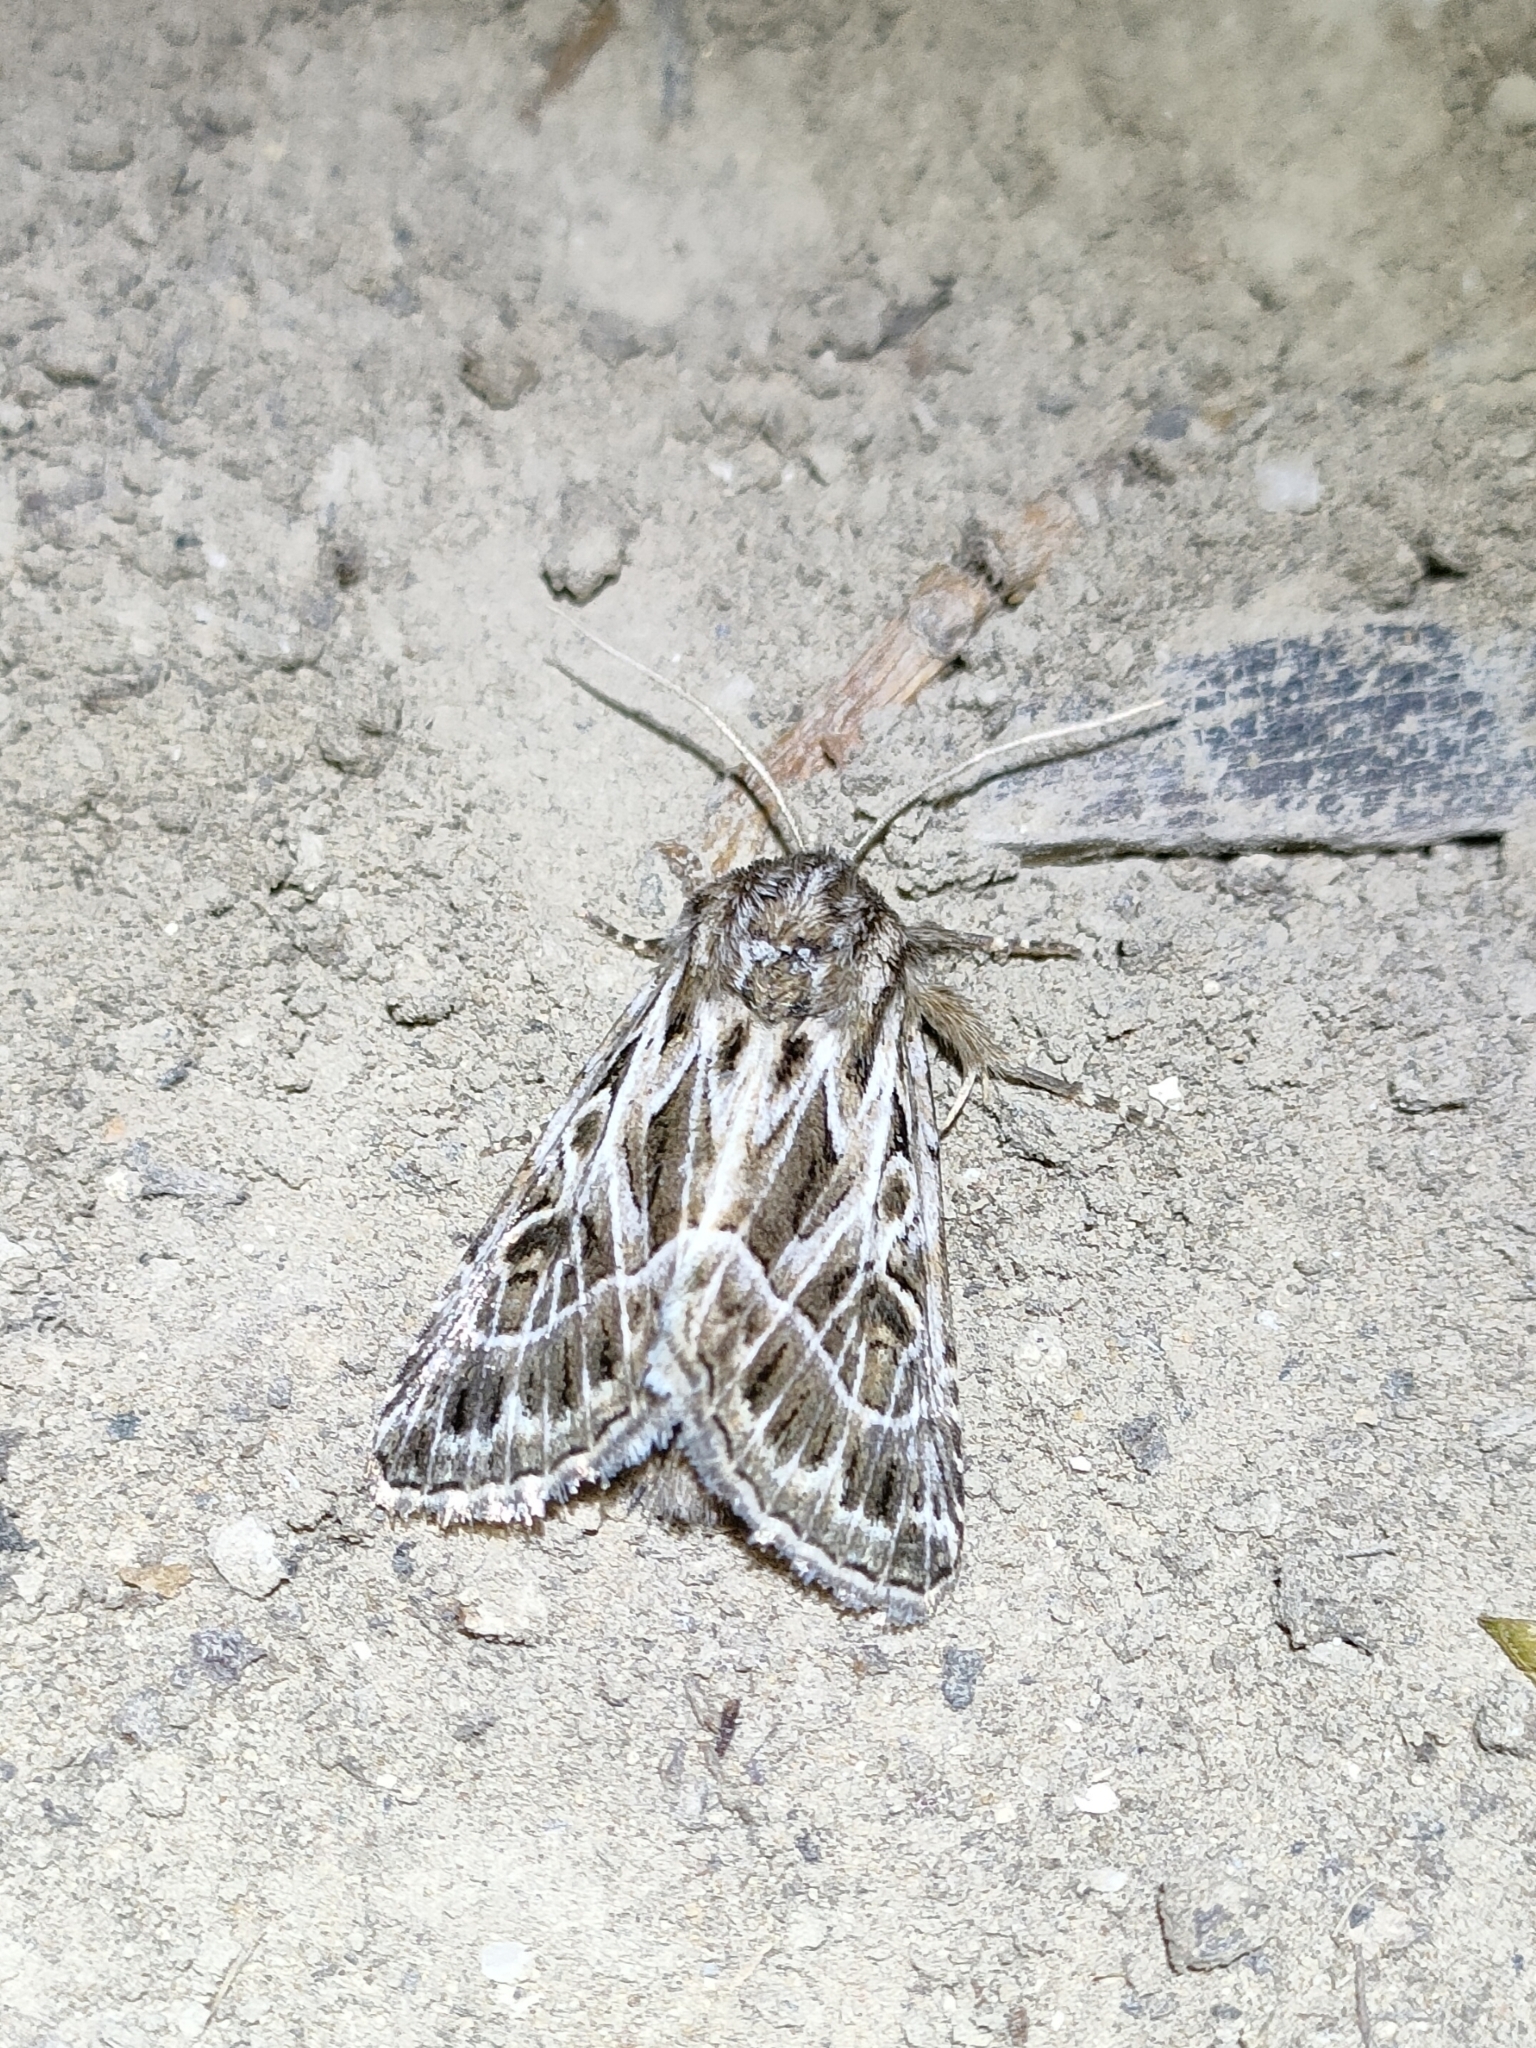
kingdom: Animalia
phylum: Arthropoda
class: Insecta
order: Lepidoptera
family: Noctuidae
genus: Thalpophila
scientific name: Thalpophila vitalba
